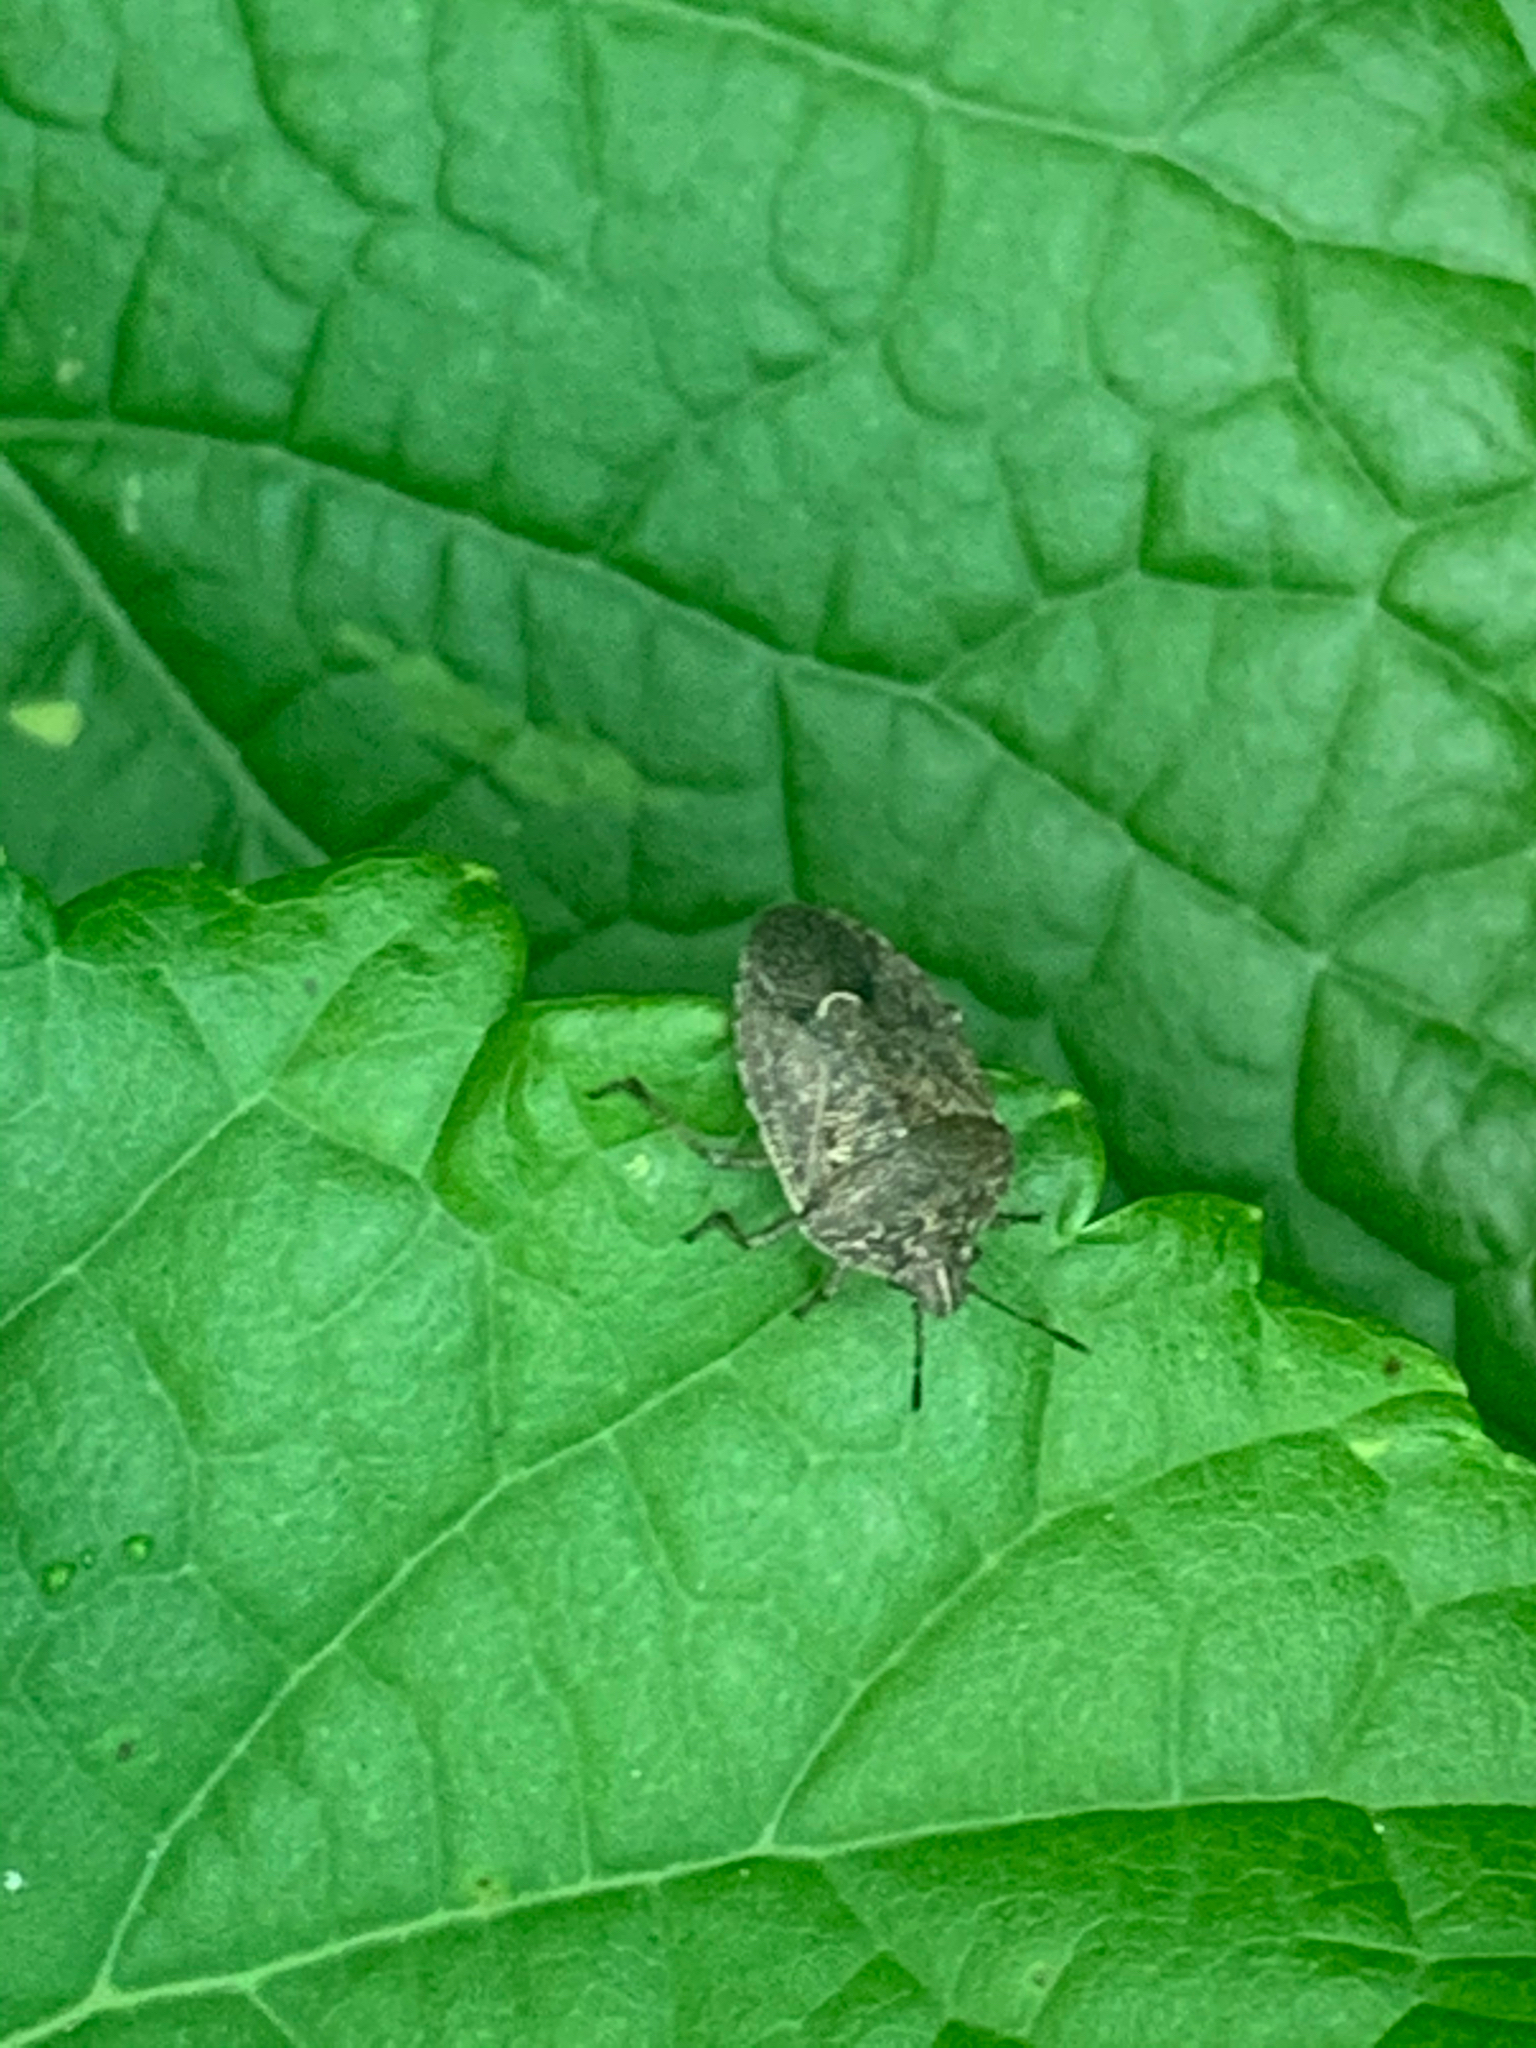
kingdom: Animalia
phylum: Arthropoda
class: Insecta
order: Hemiptera
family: Pentatomidae
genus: Hymenarcys
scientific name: Hymenarcys nervosa
